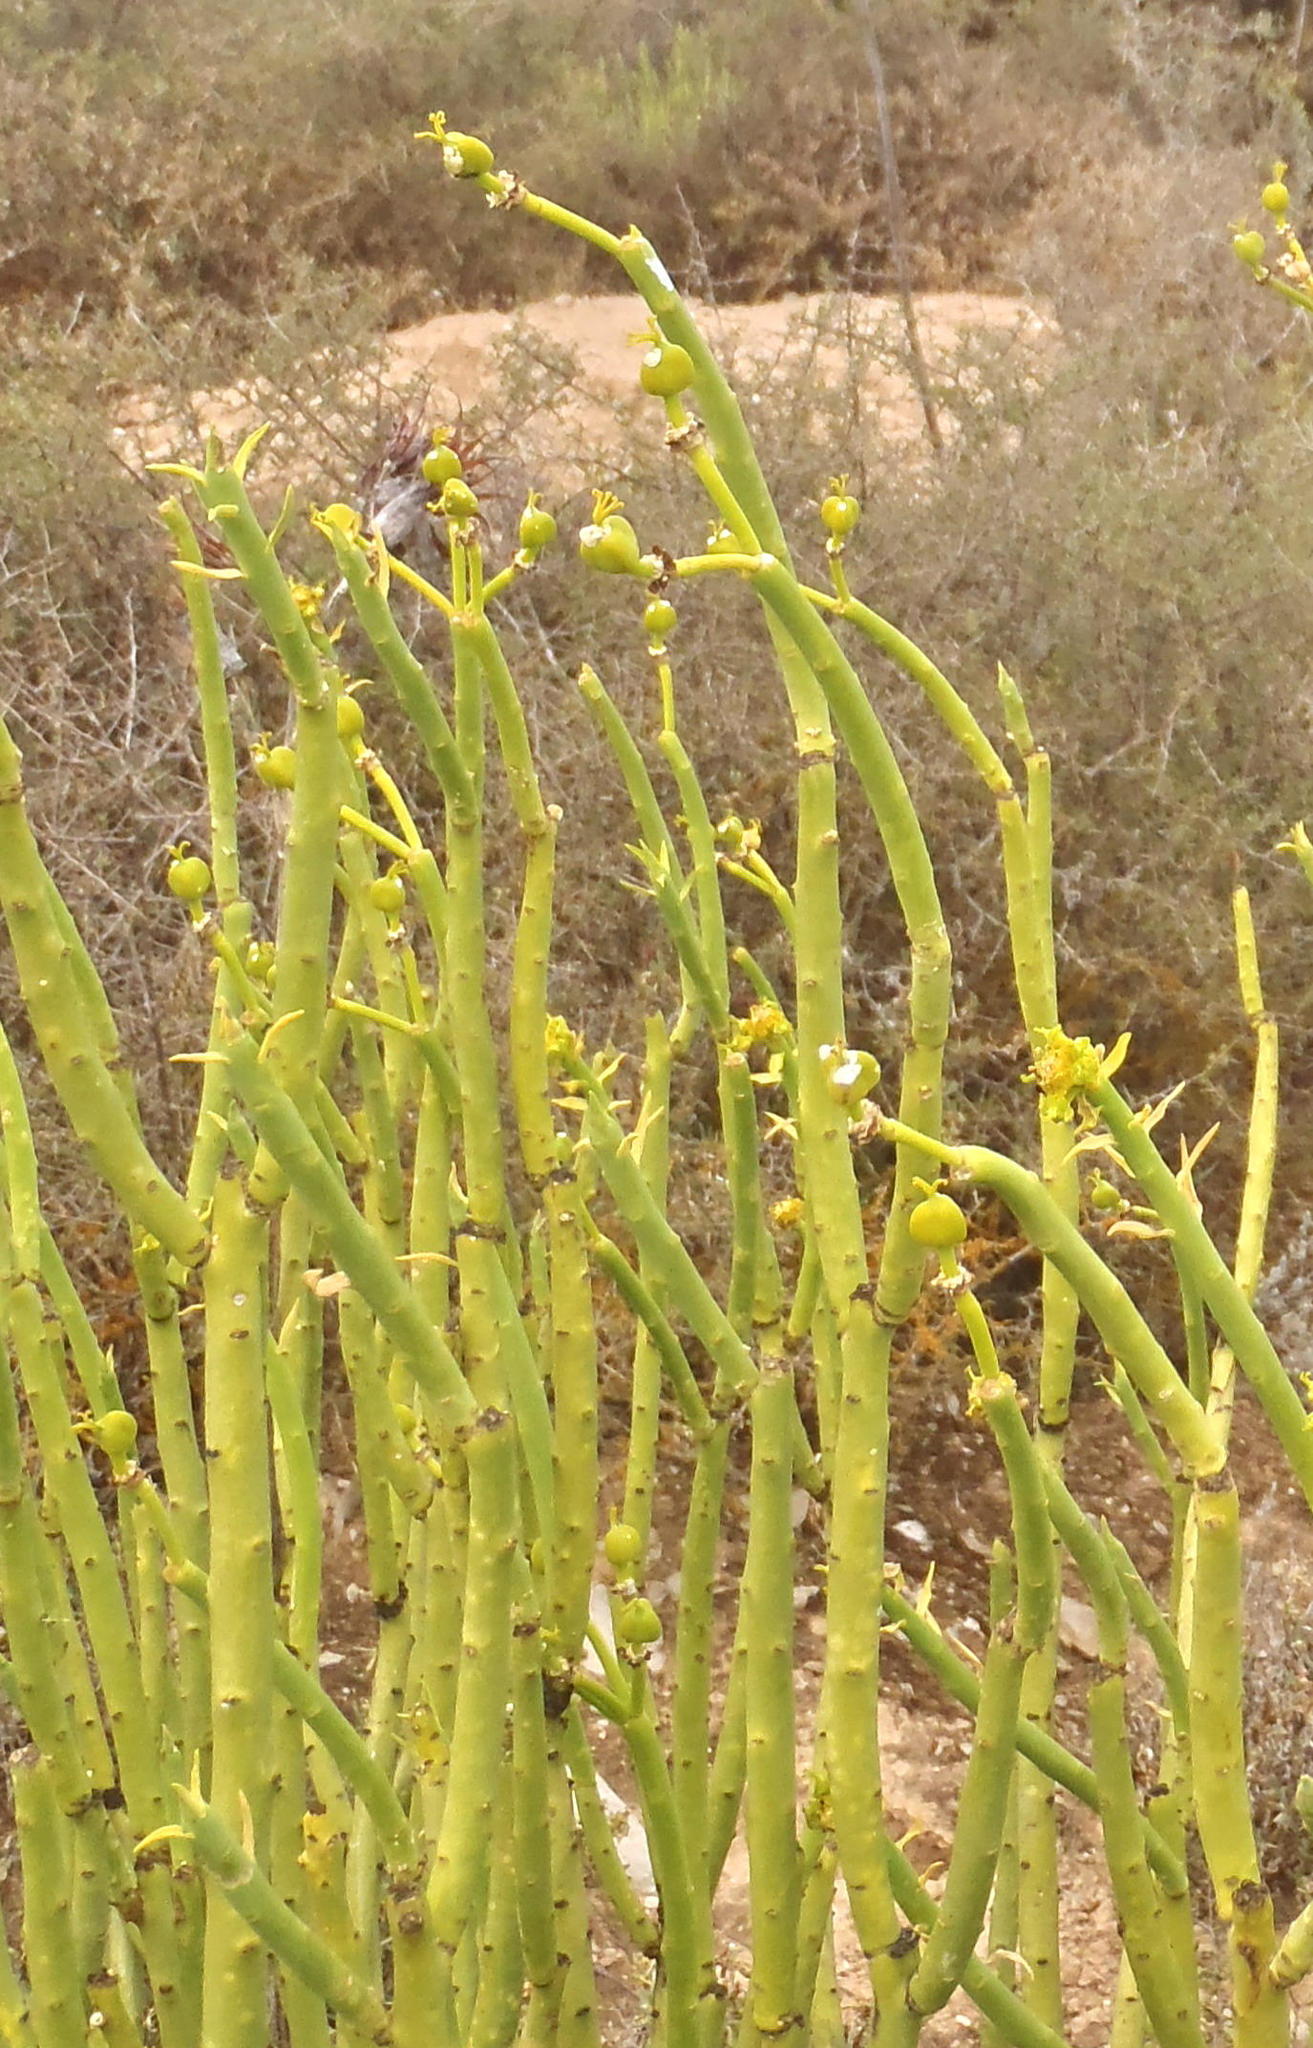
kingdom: Plantae
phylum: Tracheophyta
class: Magnoliopsida
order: Malpighiales
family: Euphorbiaceae
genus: Euphorbia
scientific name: Euphorbia mauritanica
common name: Jackal's-food
